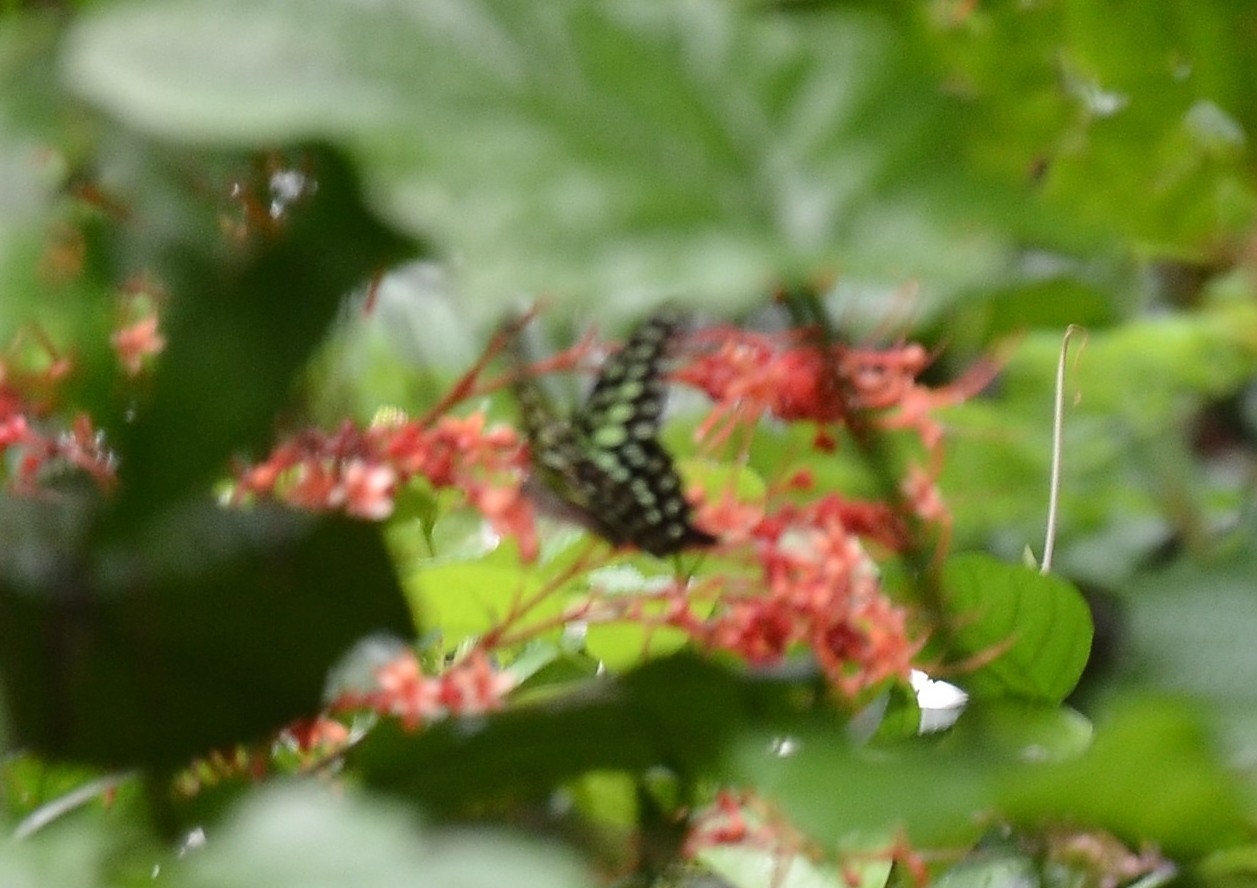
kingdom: Animalia
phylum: Arthropoda
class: Insecta
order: Lepidoptera
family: Papilionidae
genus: Graphium
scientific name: Graphium agamemnon
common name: Tailed jay
